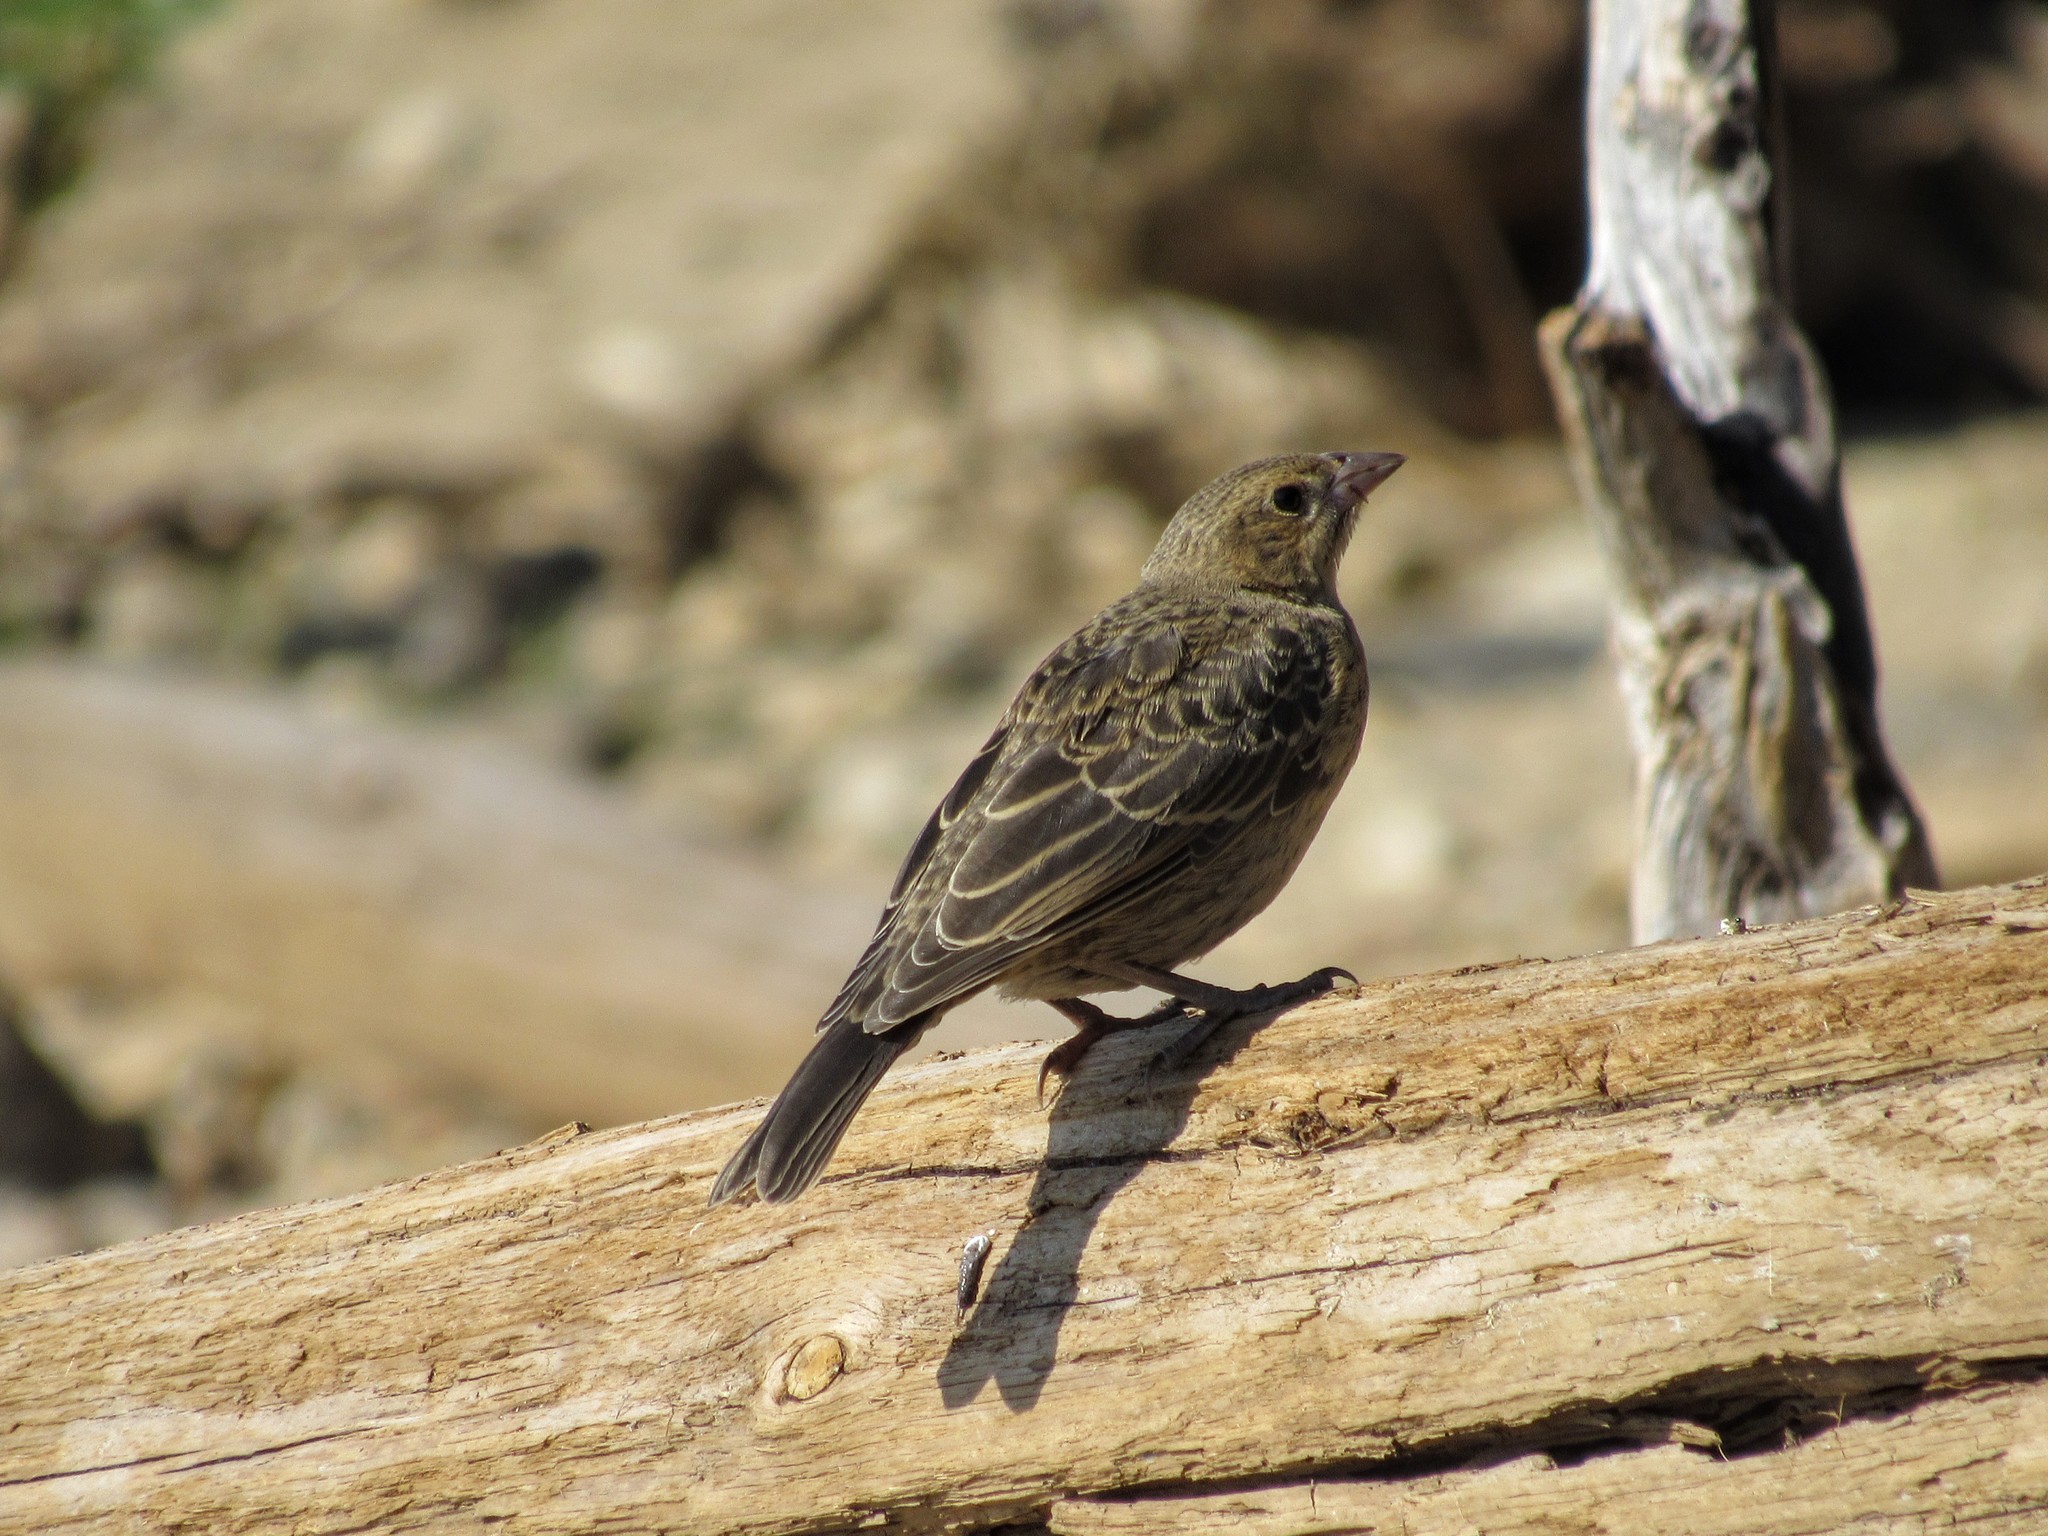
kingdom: Animalia
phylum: Chordata
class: Aves
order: Passeriformes
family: Icteridae
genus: Molothrus
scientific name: Molothrus ater
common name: Brown-headed cowbird
